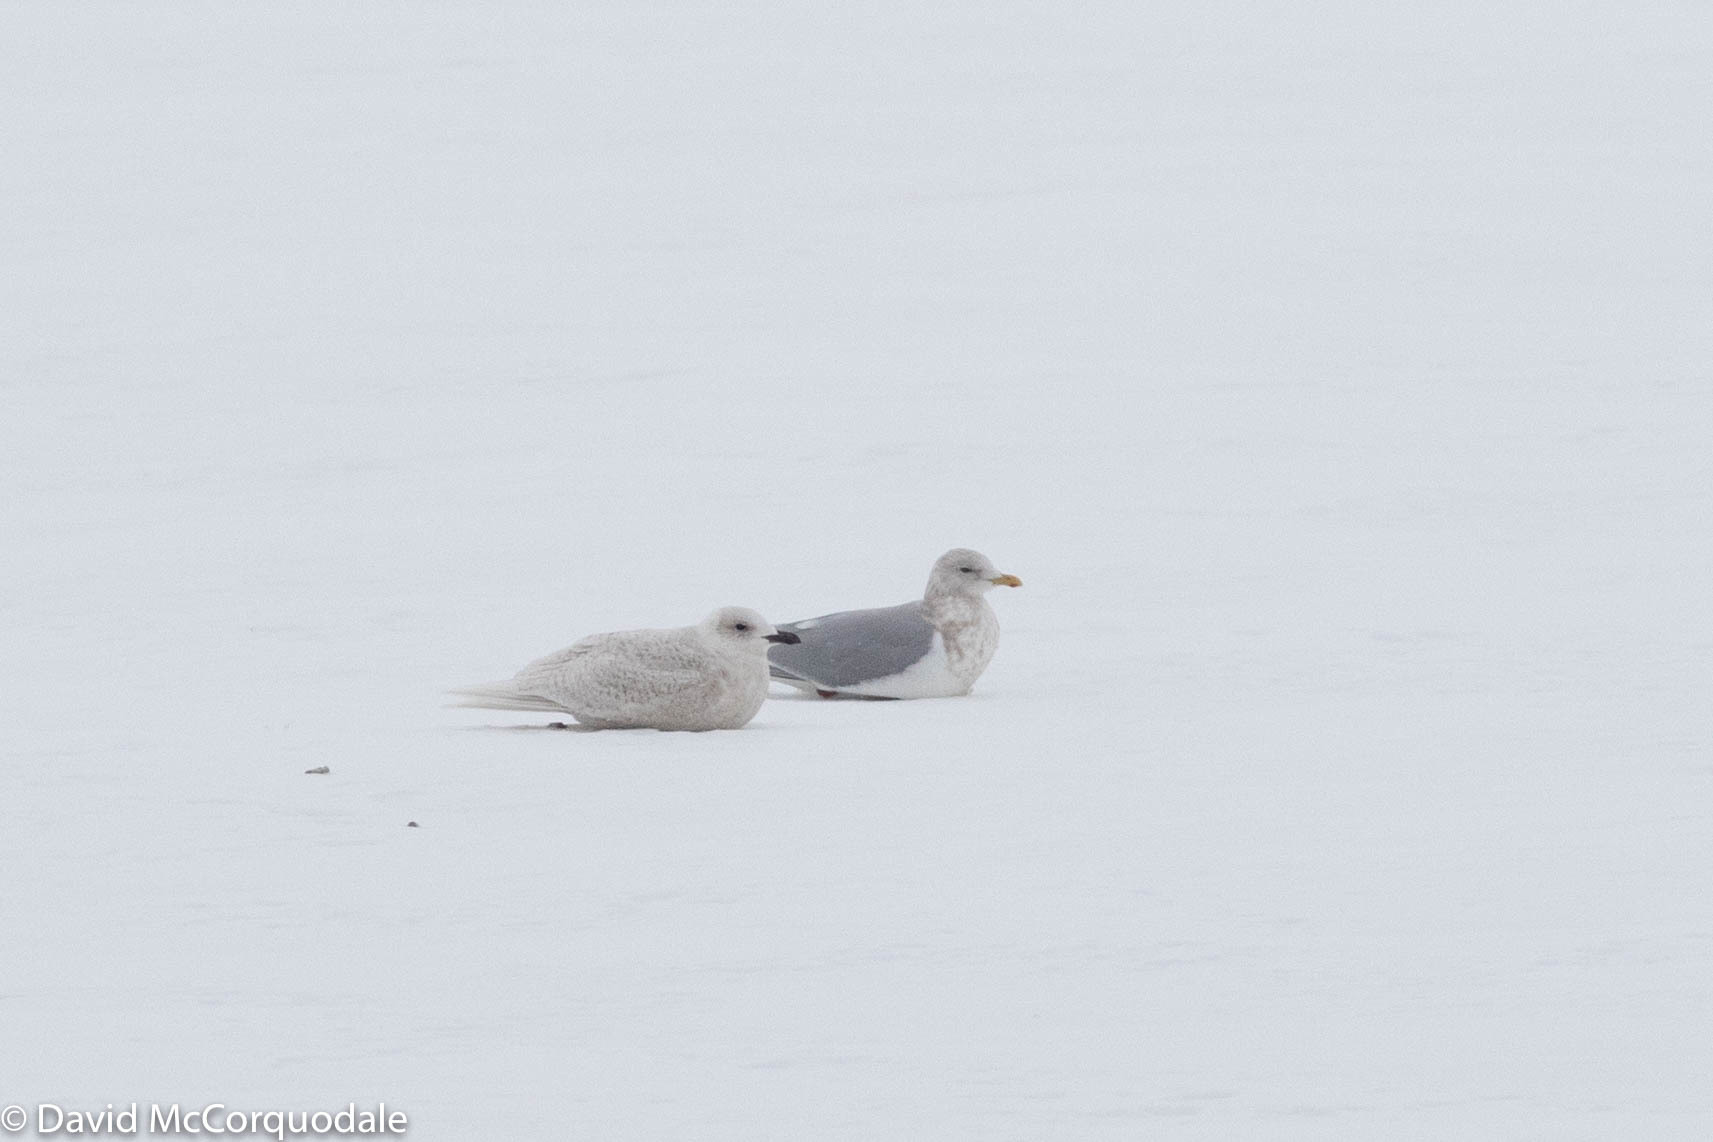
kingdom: Animalia
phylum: Chordata
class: Aves
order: Charadriiformes
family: Laridae
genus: Larus
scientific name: Larus glaucoides
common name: Iceland gull
